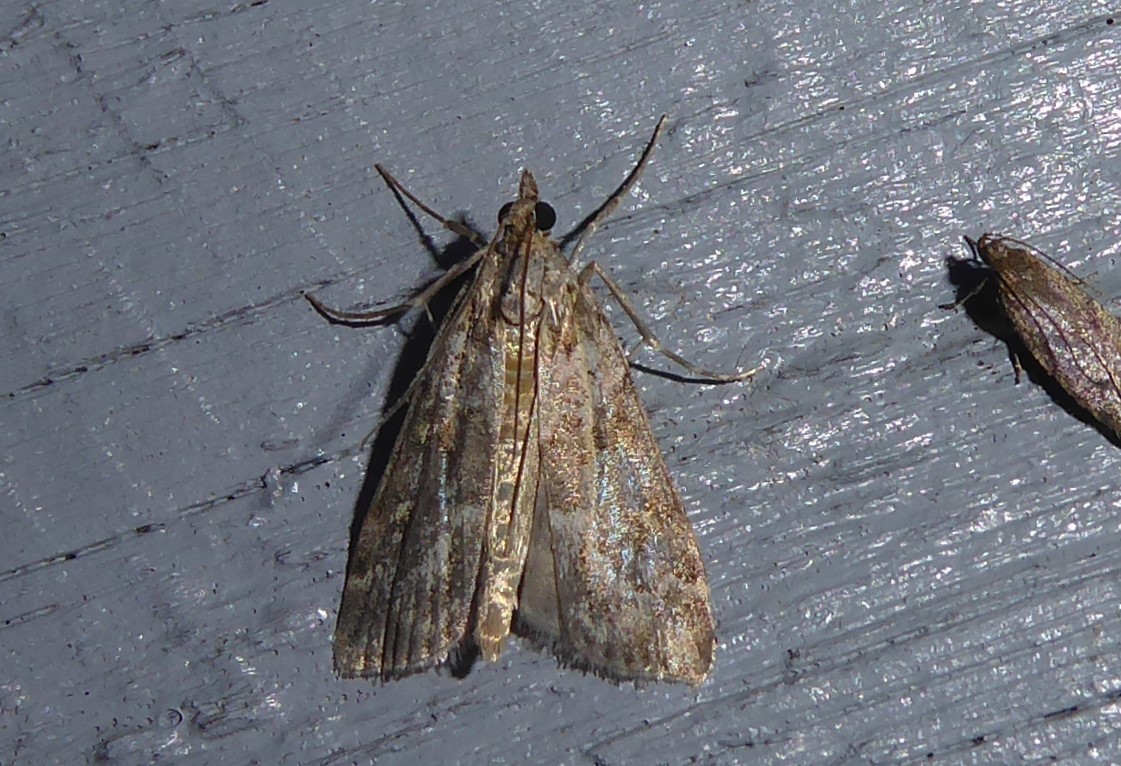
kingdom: Animalia
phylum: Arthropoda
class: Insecta
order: Lepidoptera
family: Crambidae
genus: Eudonia
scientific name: Eudonia diphtheralis
